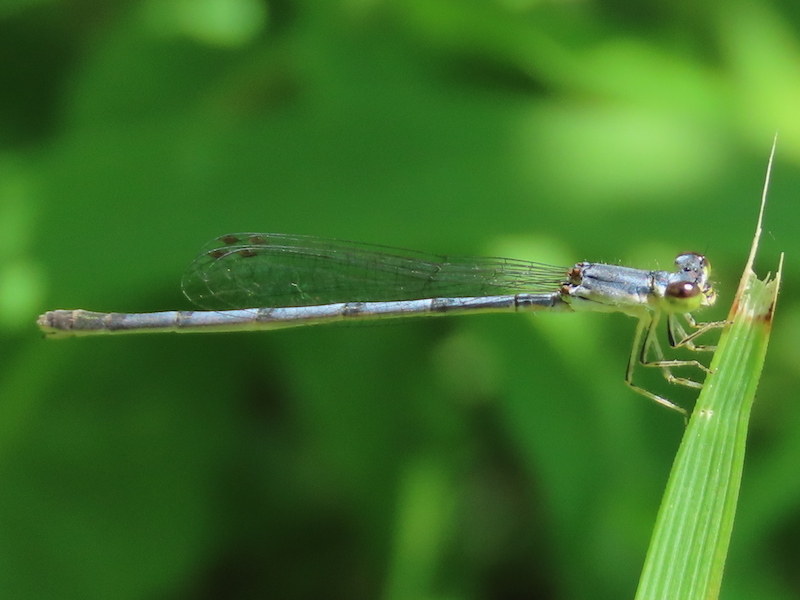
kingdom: Animalia
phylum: Arthropoda
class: Insecta
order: Odonata
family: Coenagrionidae
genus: Ischnura
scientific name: Ischnura posita
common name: Fragile forktail
